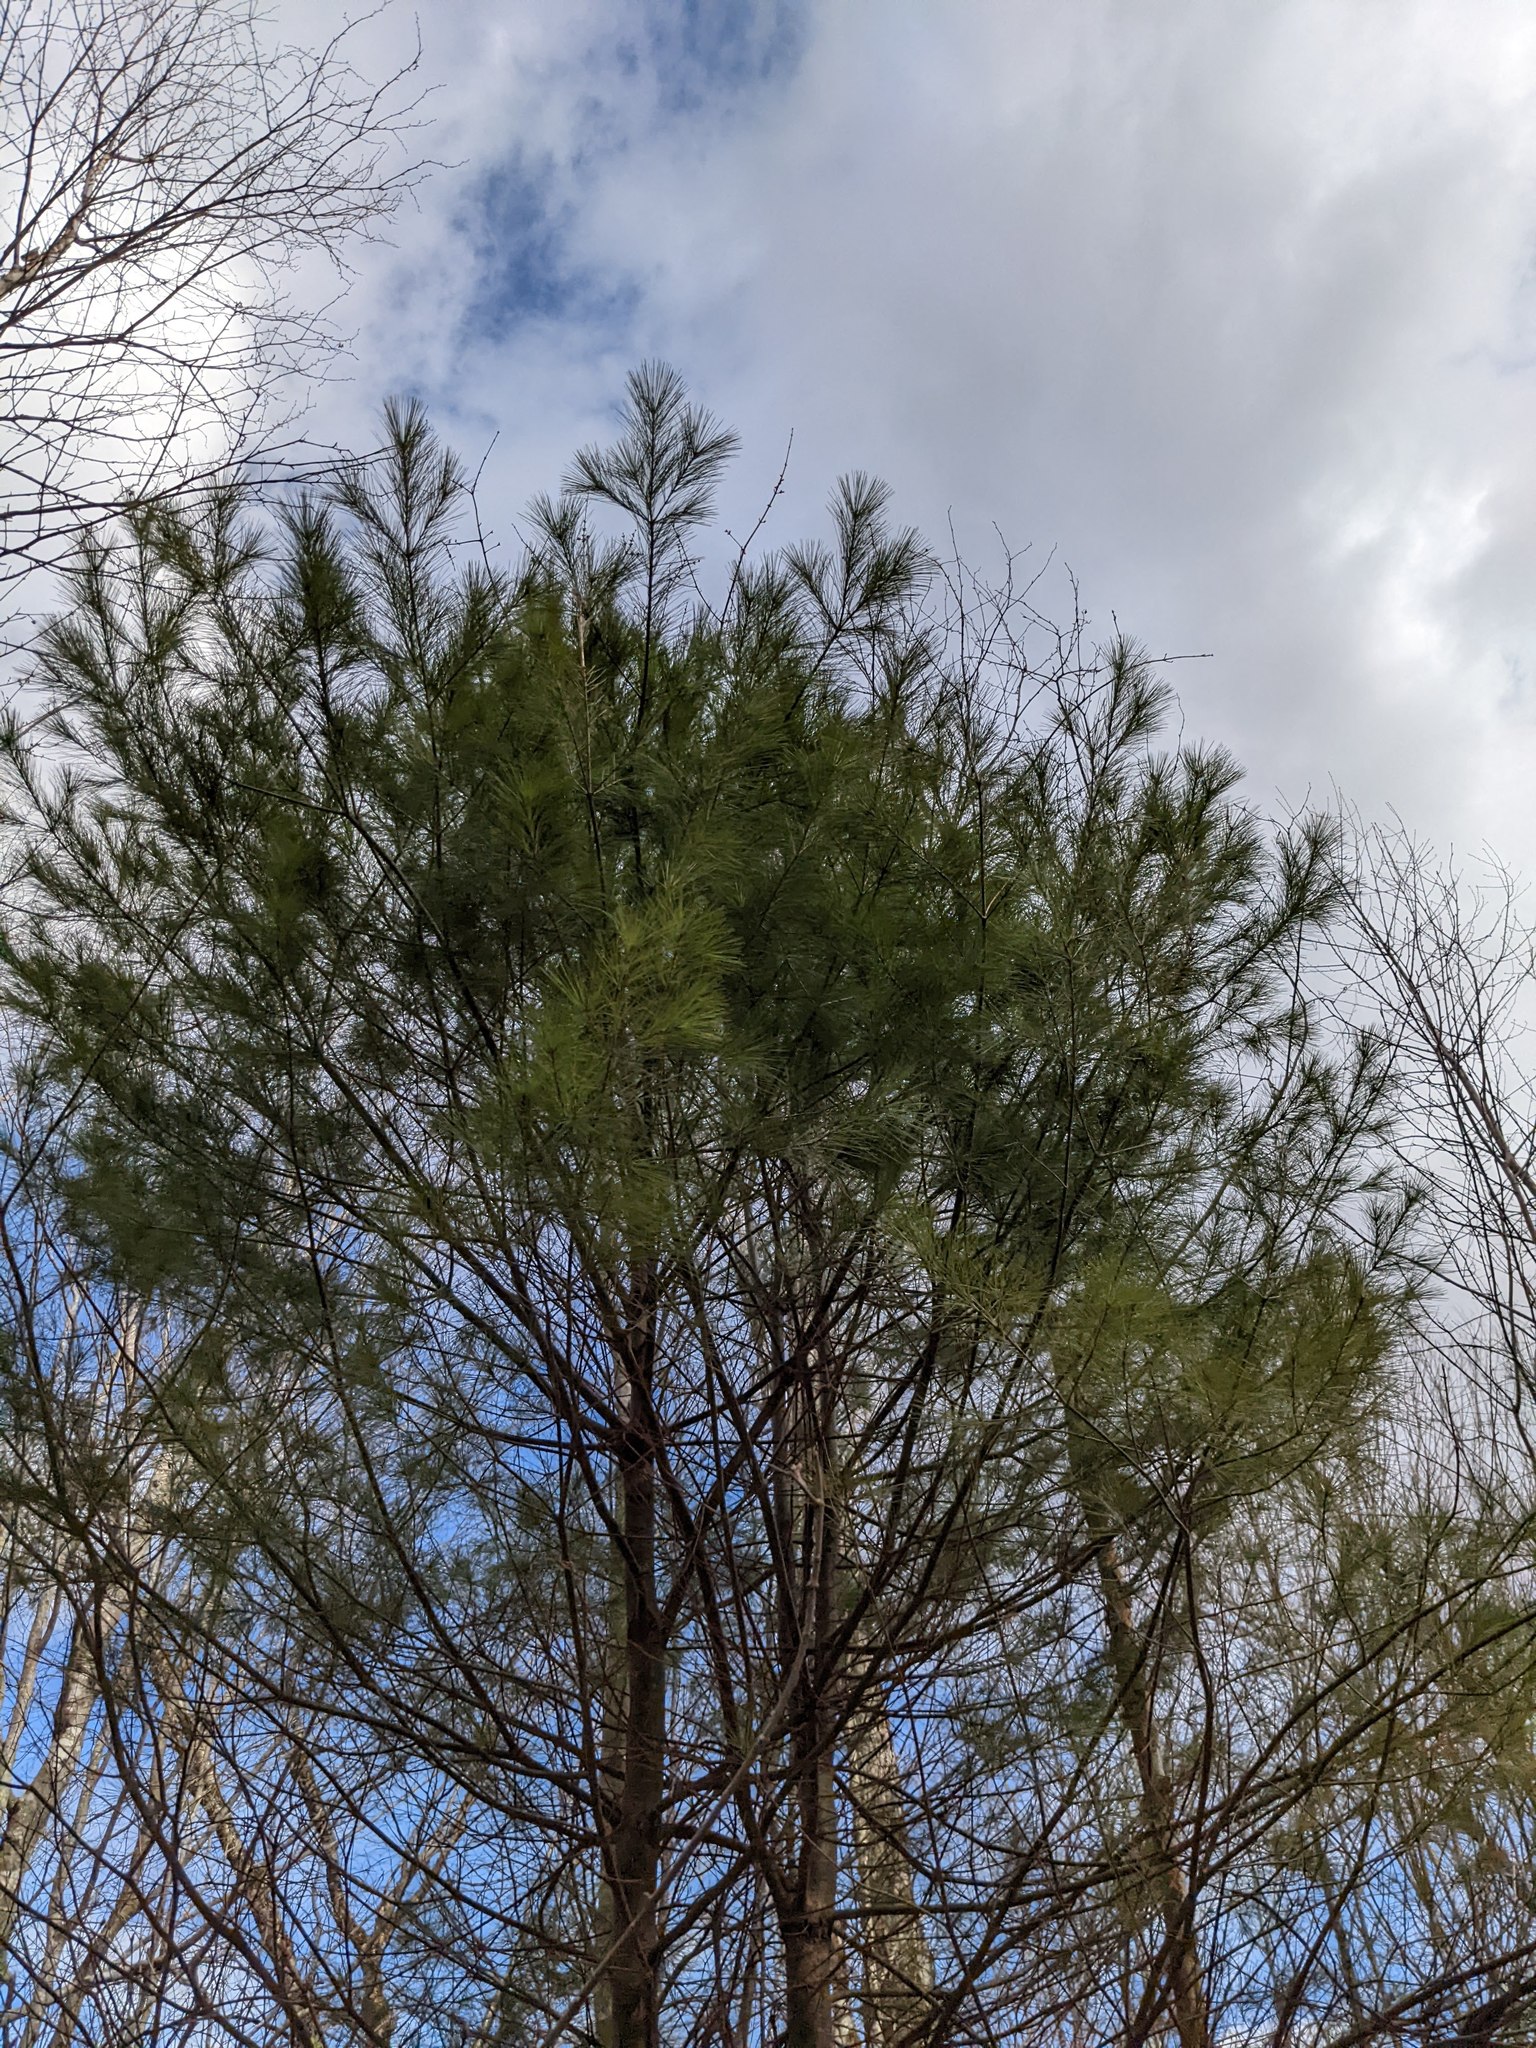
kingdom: Plantae
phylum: Tracheophyta
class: Pinopsida
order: Pinales
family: Pinaceae
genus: Pinus
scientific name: Pinus strobus
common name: Weymouth pine
